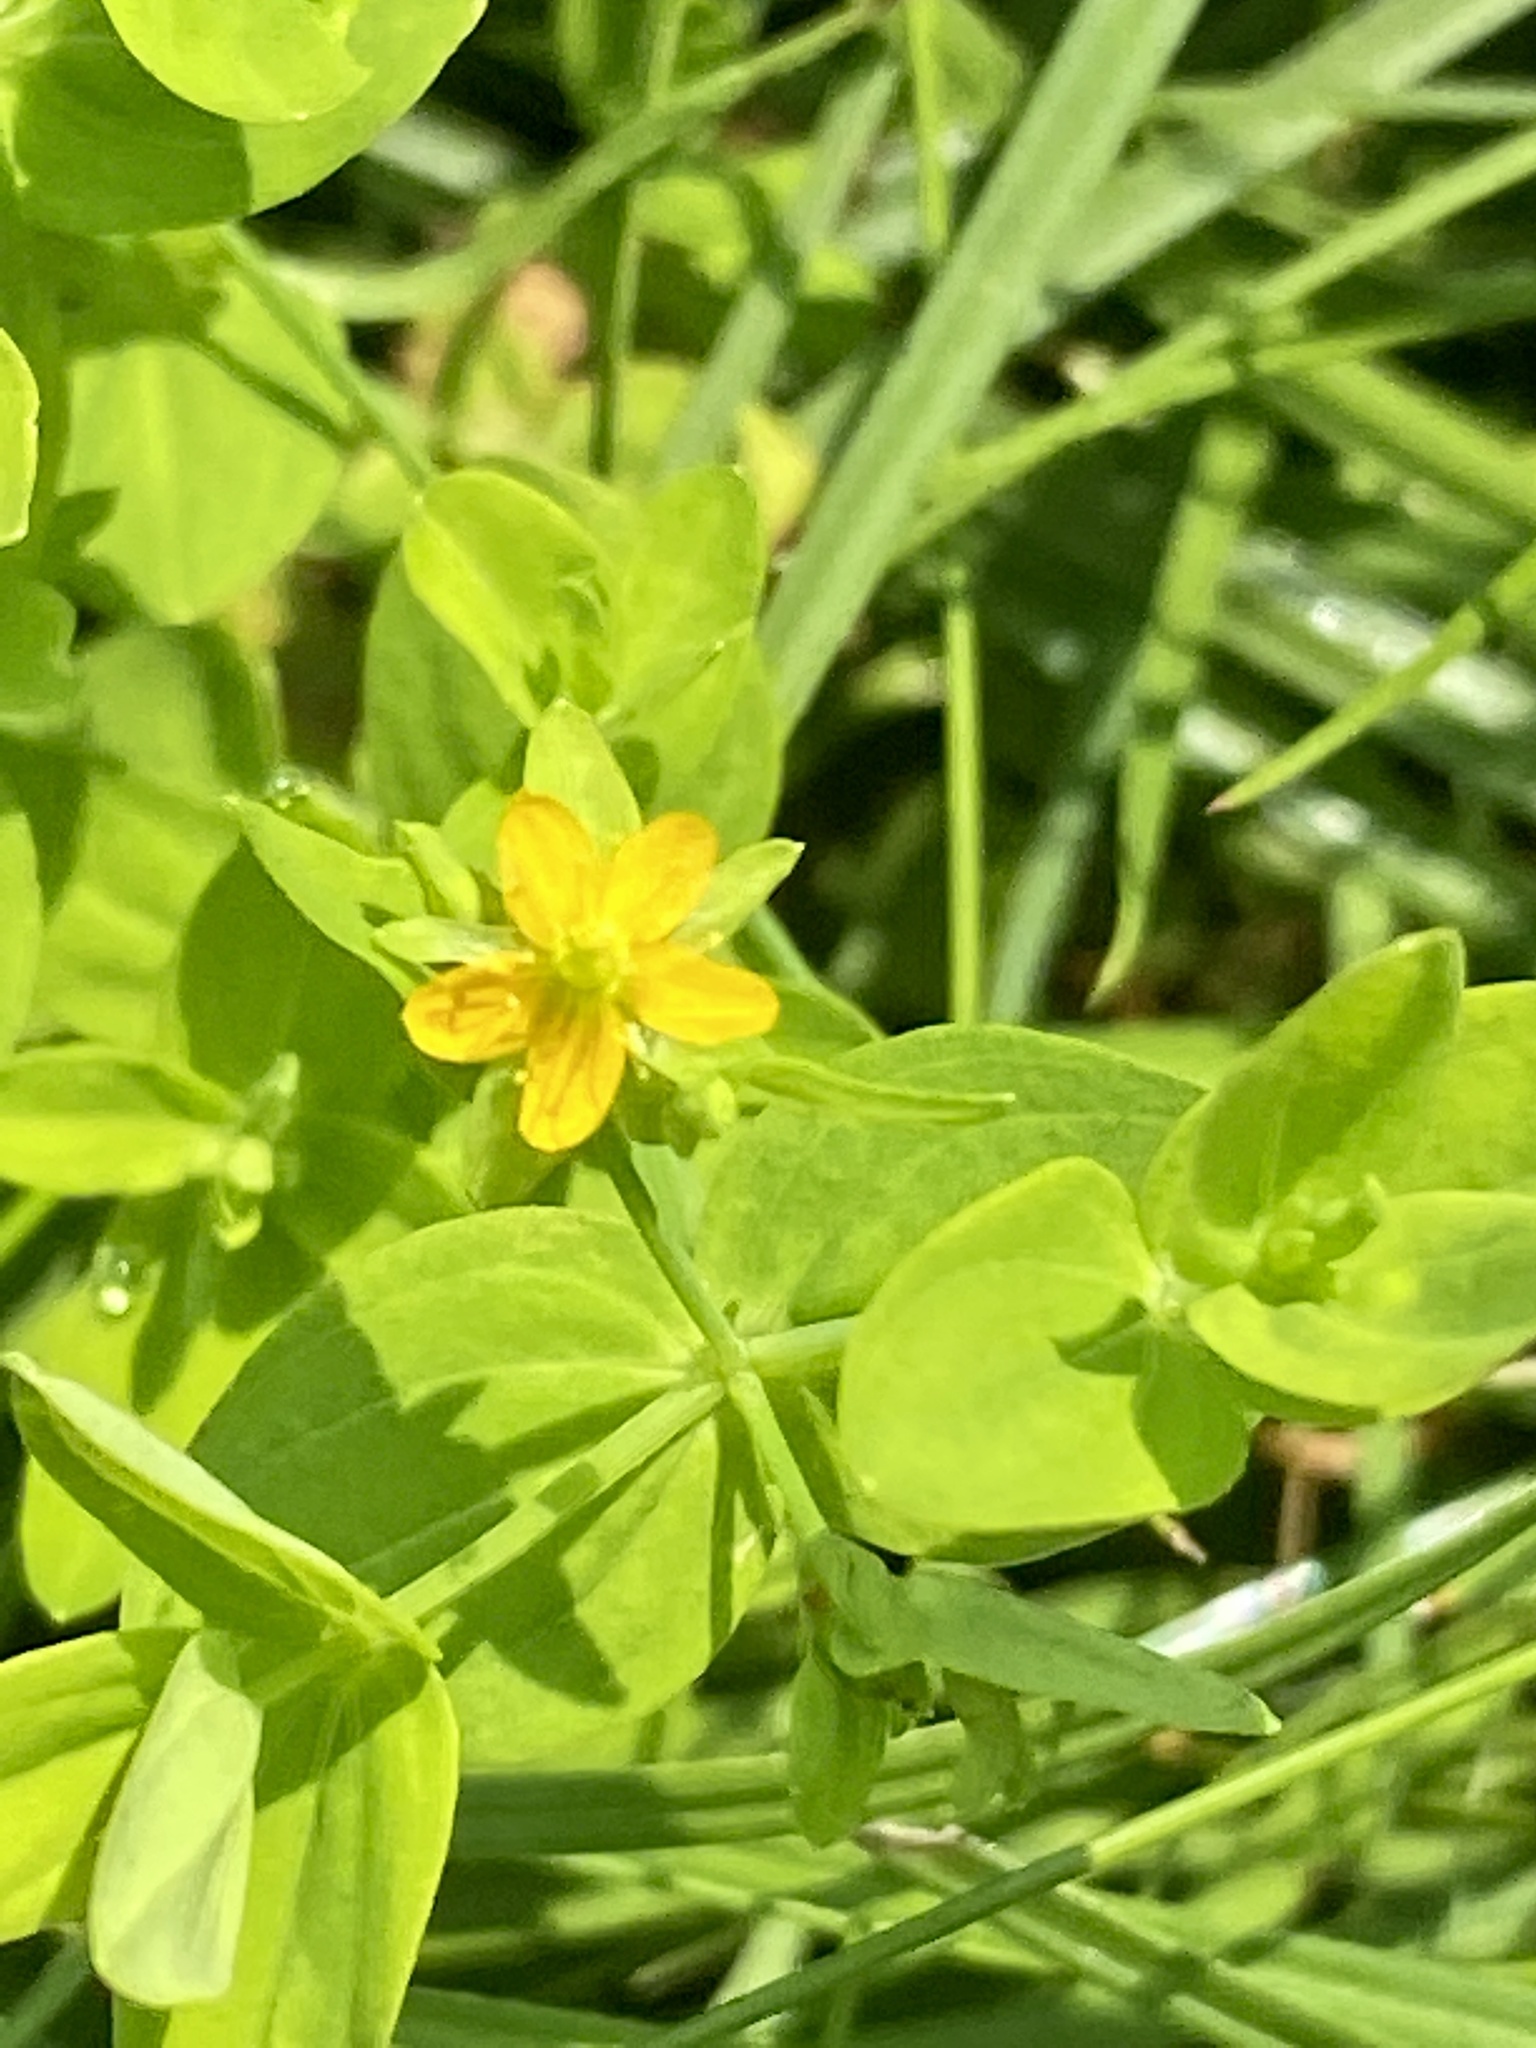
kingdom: Plantae
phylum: Tracheophyta
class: Magnoliopsida
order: Malpighiales
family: Hypericaceae
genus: Hypericum
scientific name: Hypericum mutilum
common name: Dwarf st. john's-wort
